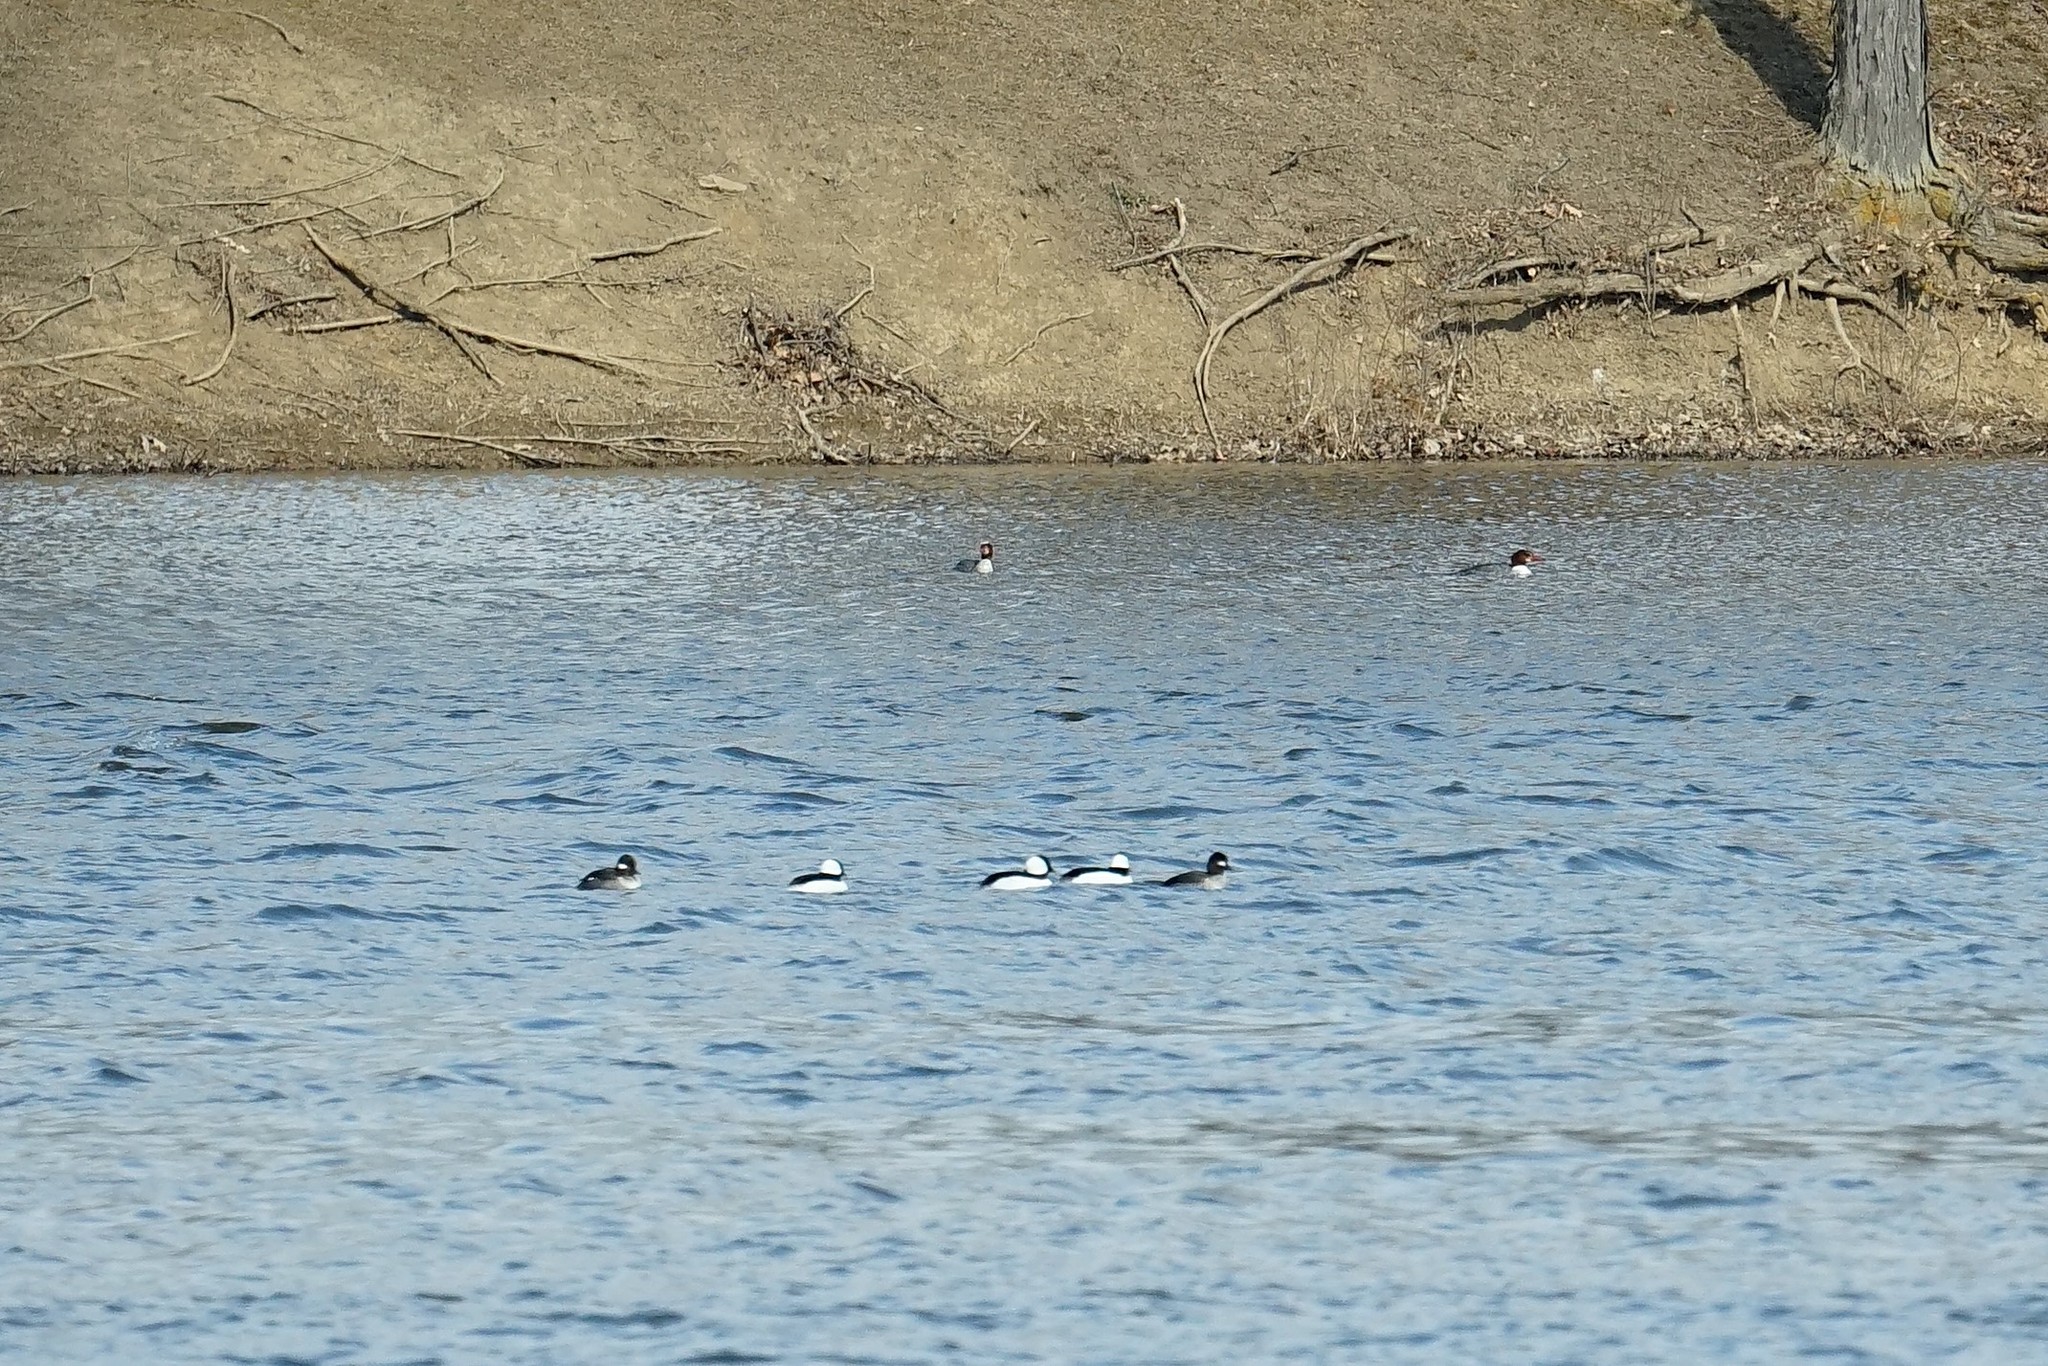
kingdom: Animalia
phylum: Chordata
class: Aves
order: Anseriformes
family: Anatidae
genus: Bucephala
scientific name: Bucephala albeola
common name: Bufflehead
